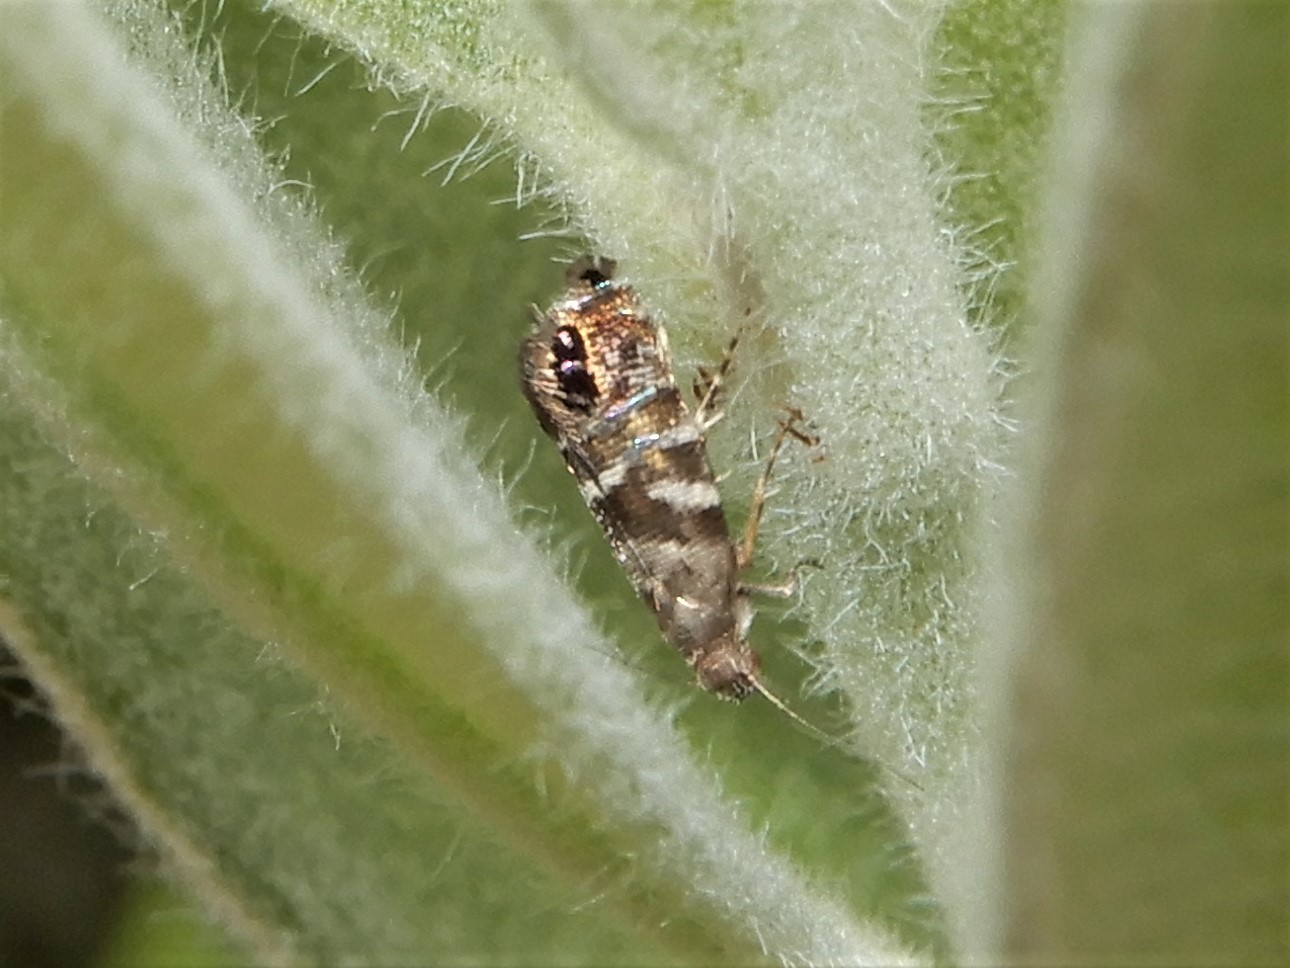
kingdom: Animalia
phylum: Arthropoda
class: Insecta
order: Lepidoptera
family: Glyphipterigidae
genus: Glyphipterix
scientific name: Glyphipterix erastis
